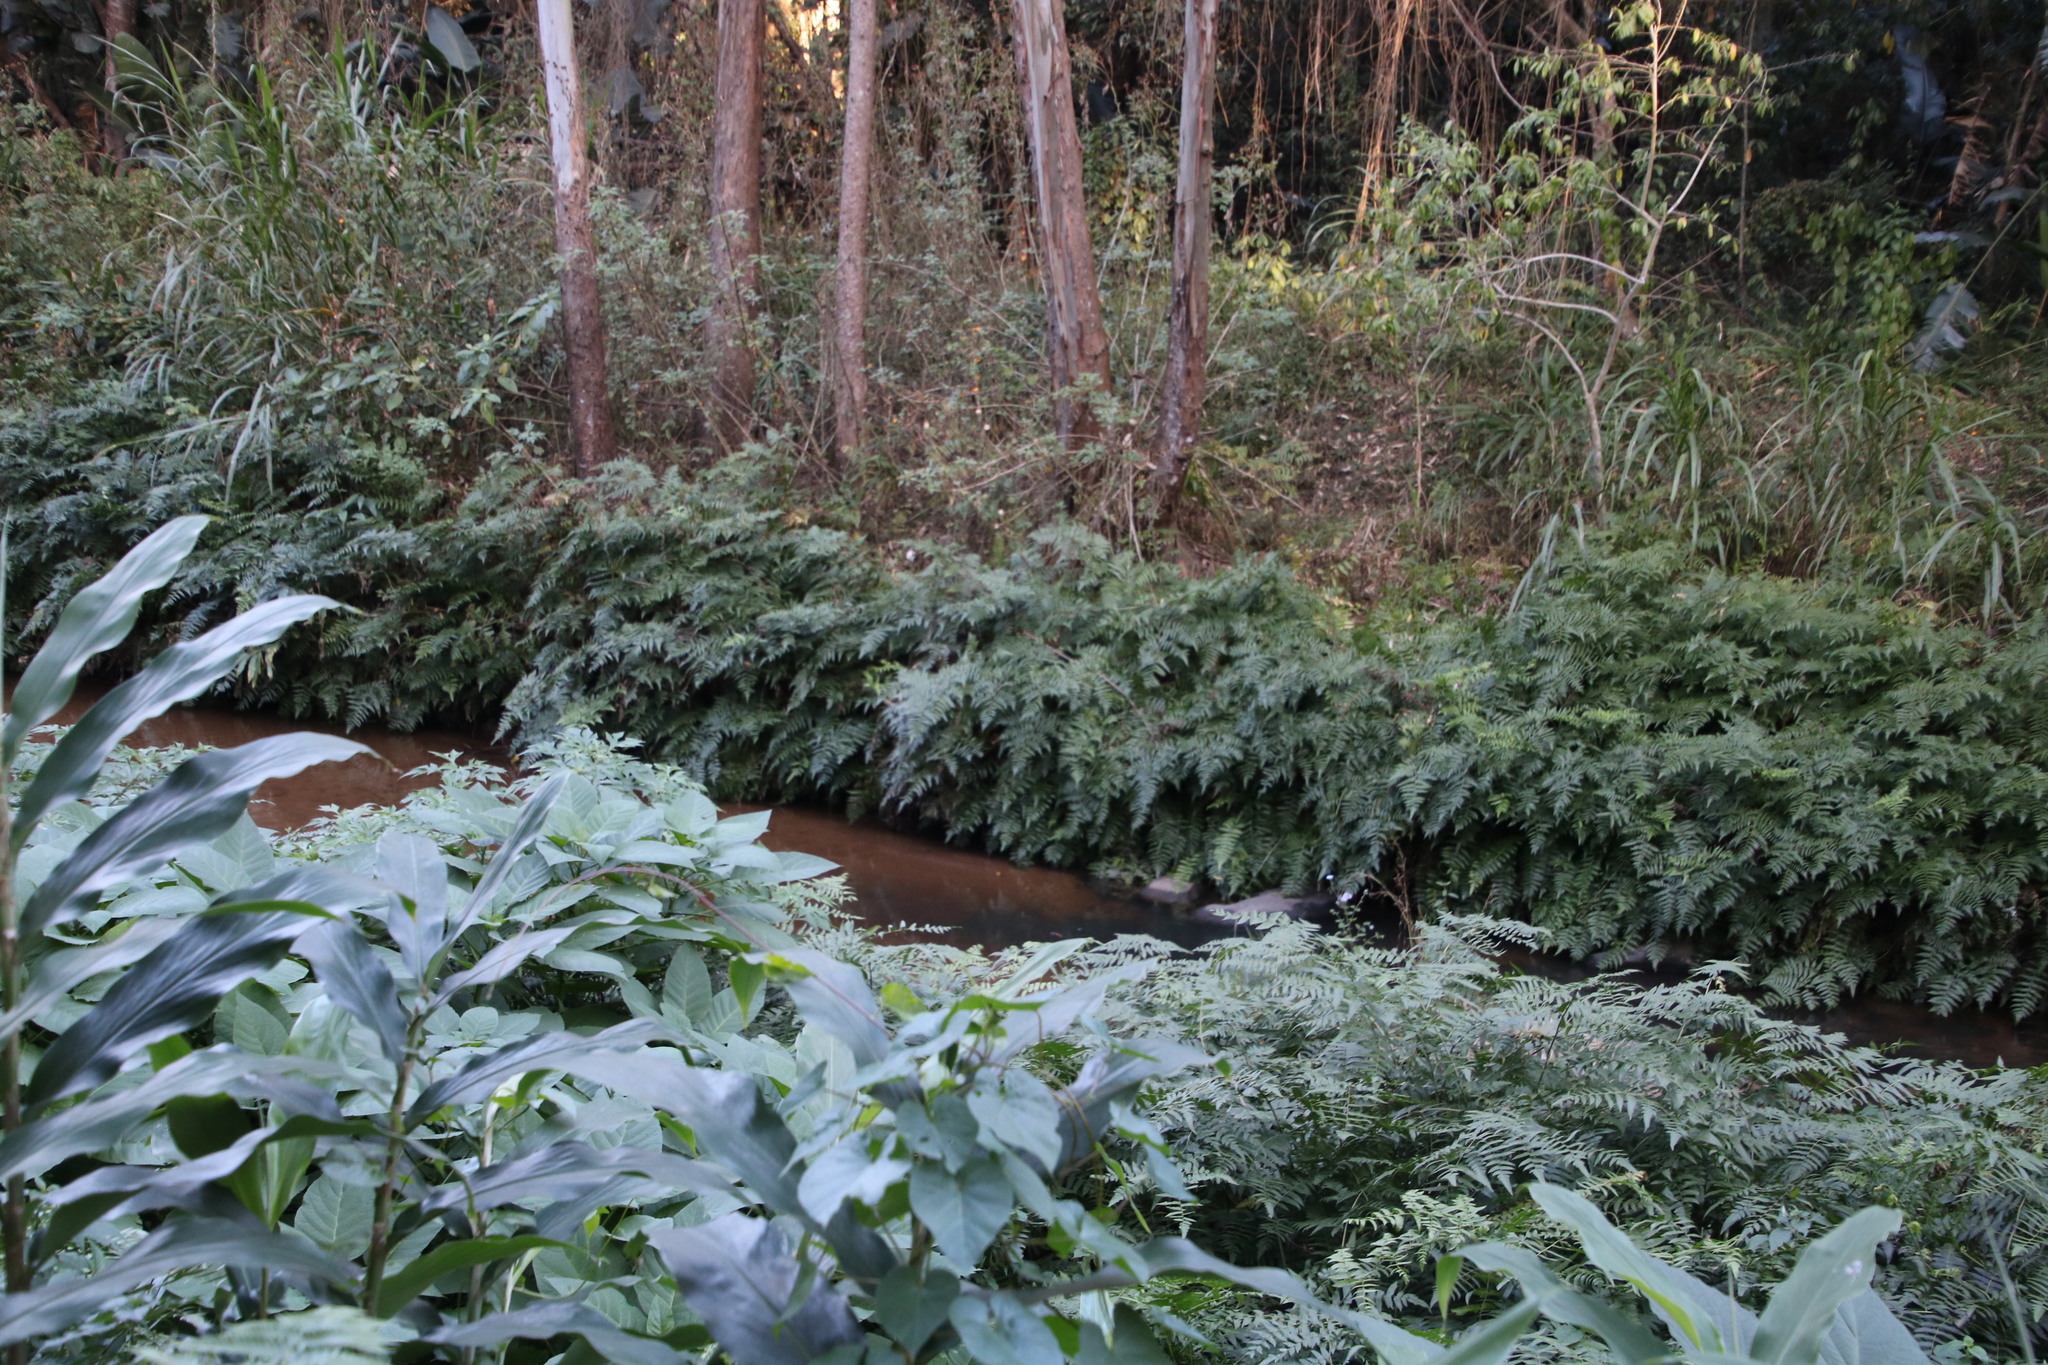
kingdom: Plantae
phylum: Tracheophyta
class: Polypodiopsida
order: Polypodiales
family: Athyriaceae
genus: Diplazium
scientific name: Diplazium esculentum
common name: Vegetable fern
